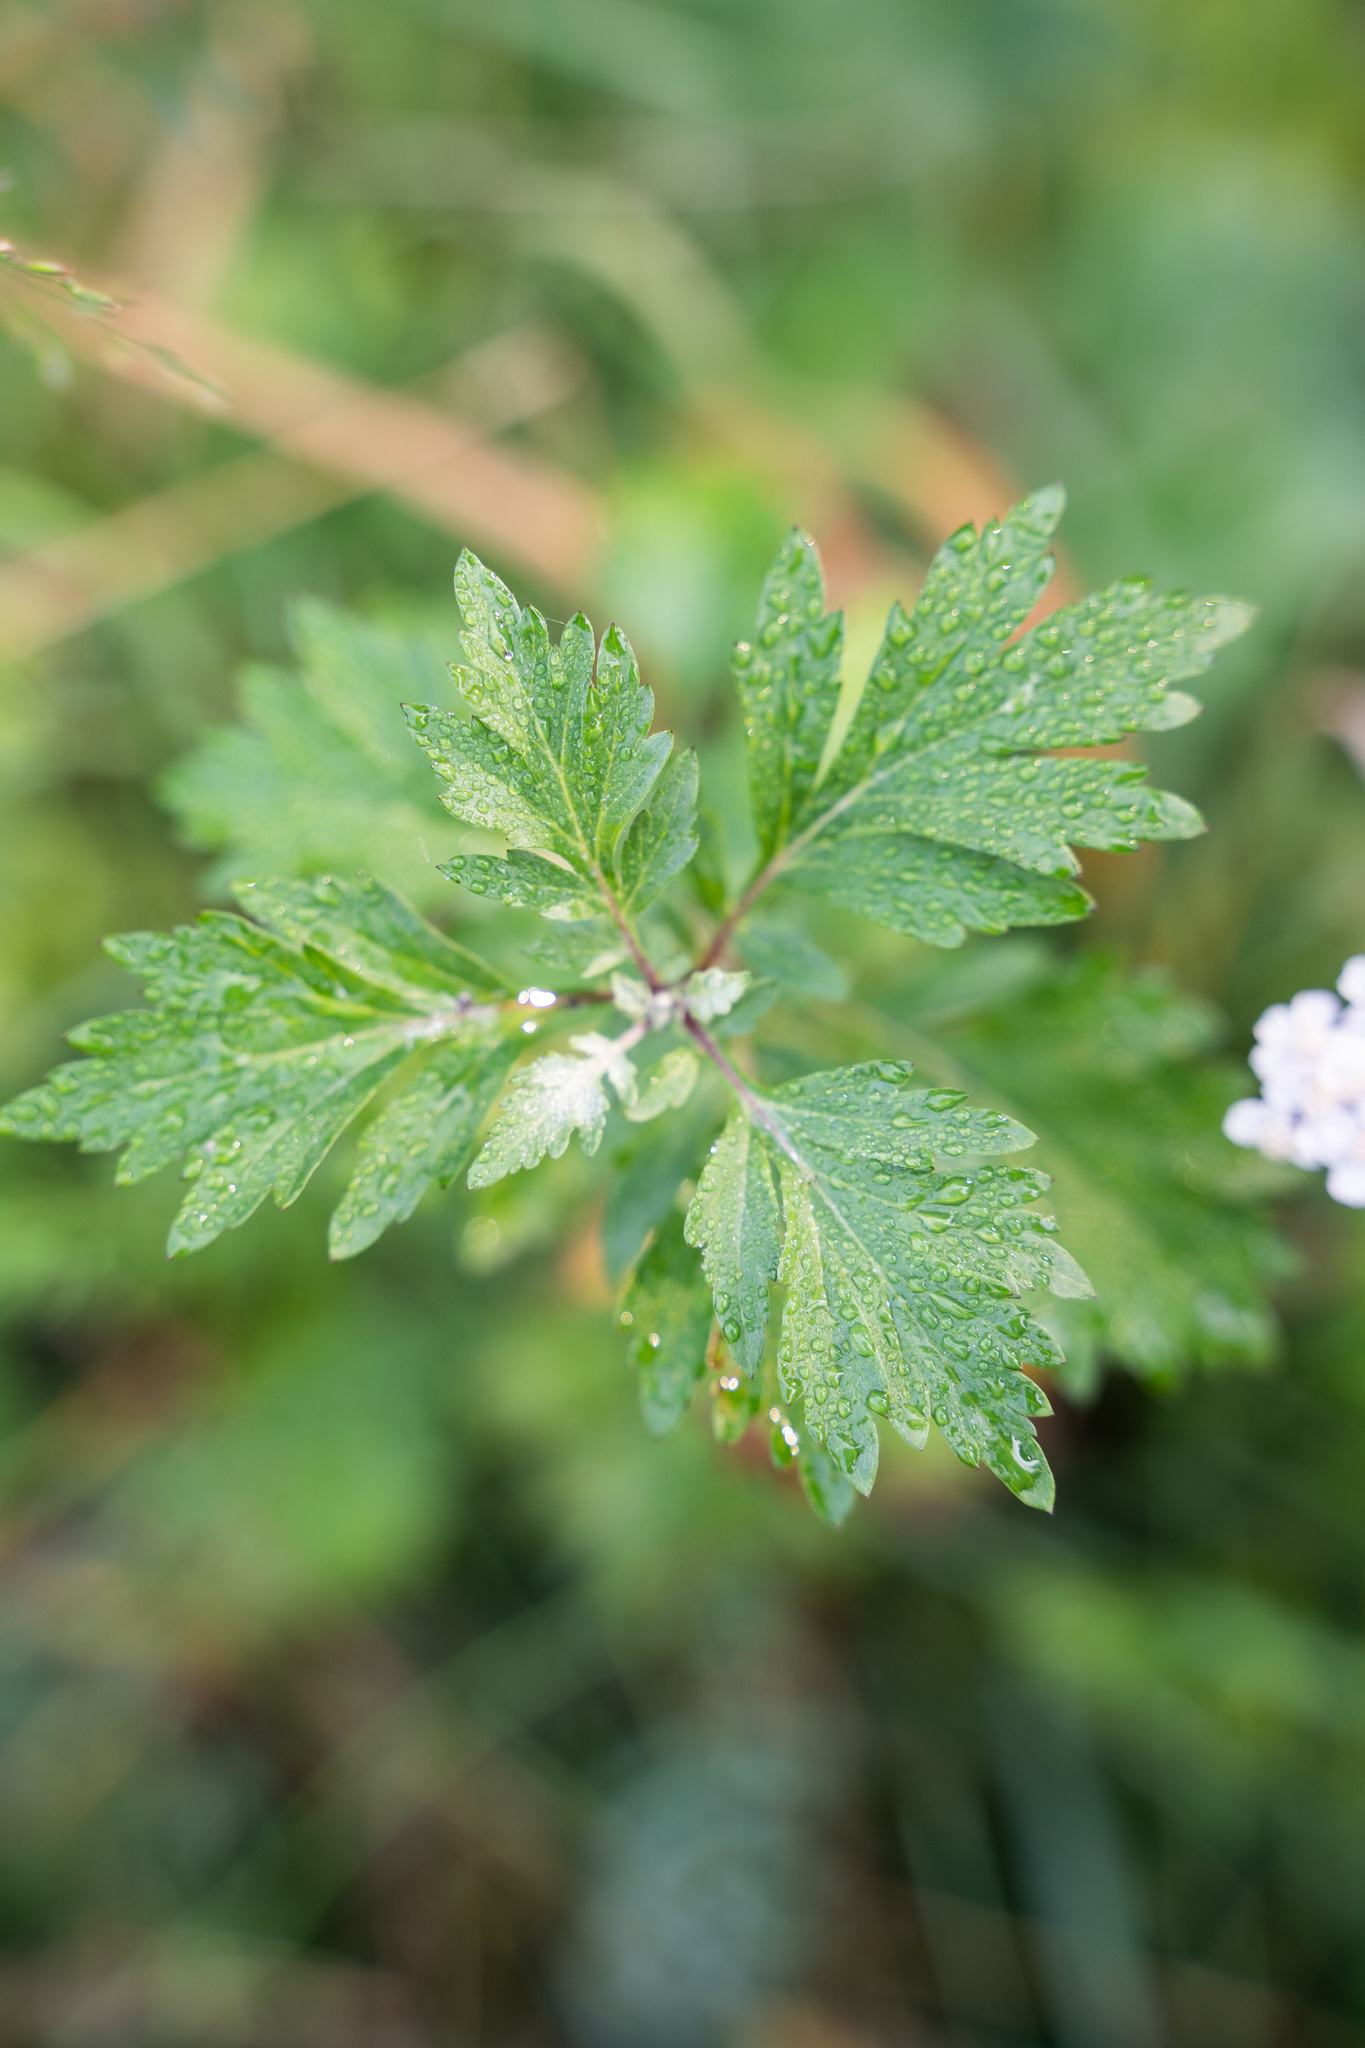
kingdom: Plantae
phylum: Tracheophyta
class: Magnoliopsida
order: Asterales
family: Asteraceae
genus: Artemisia
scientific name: Artemisia vulgaris
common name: Mugwort
